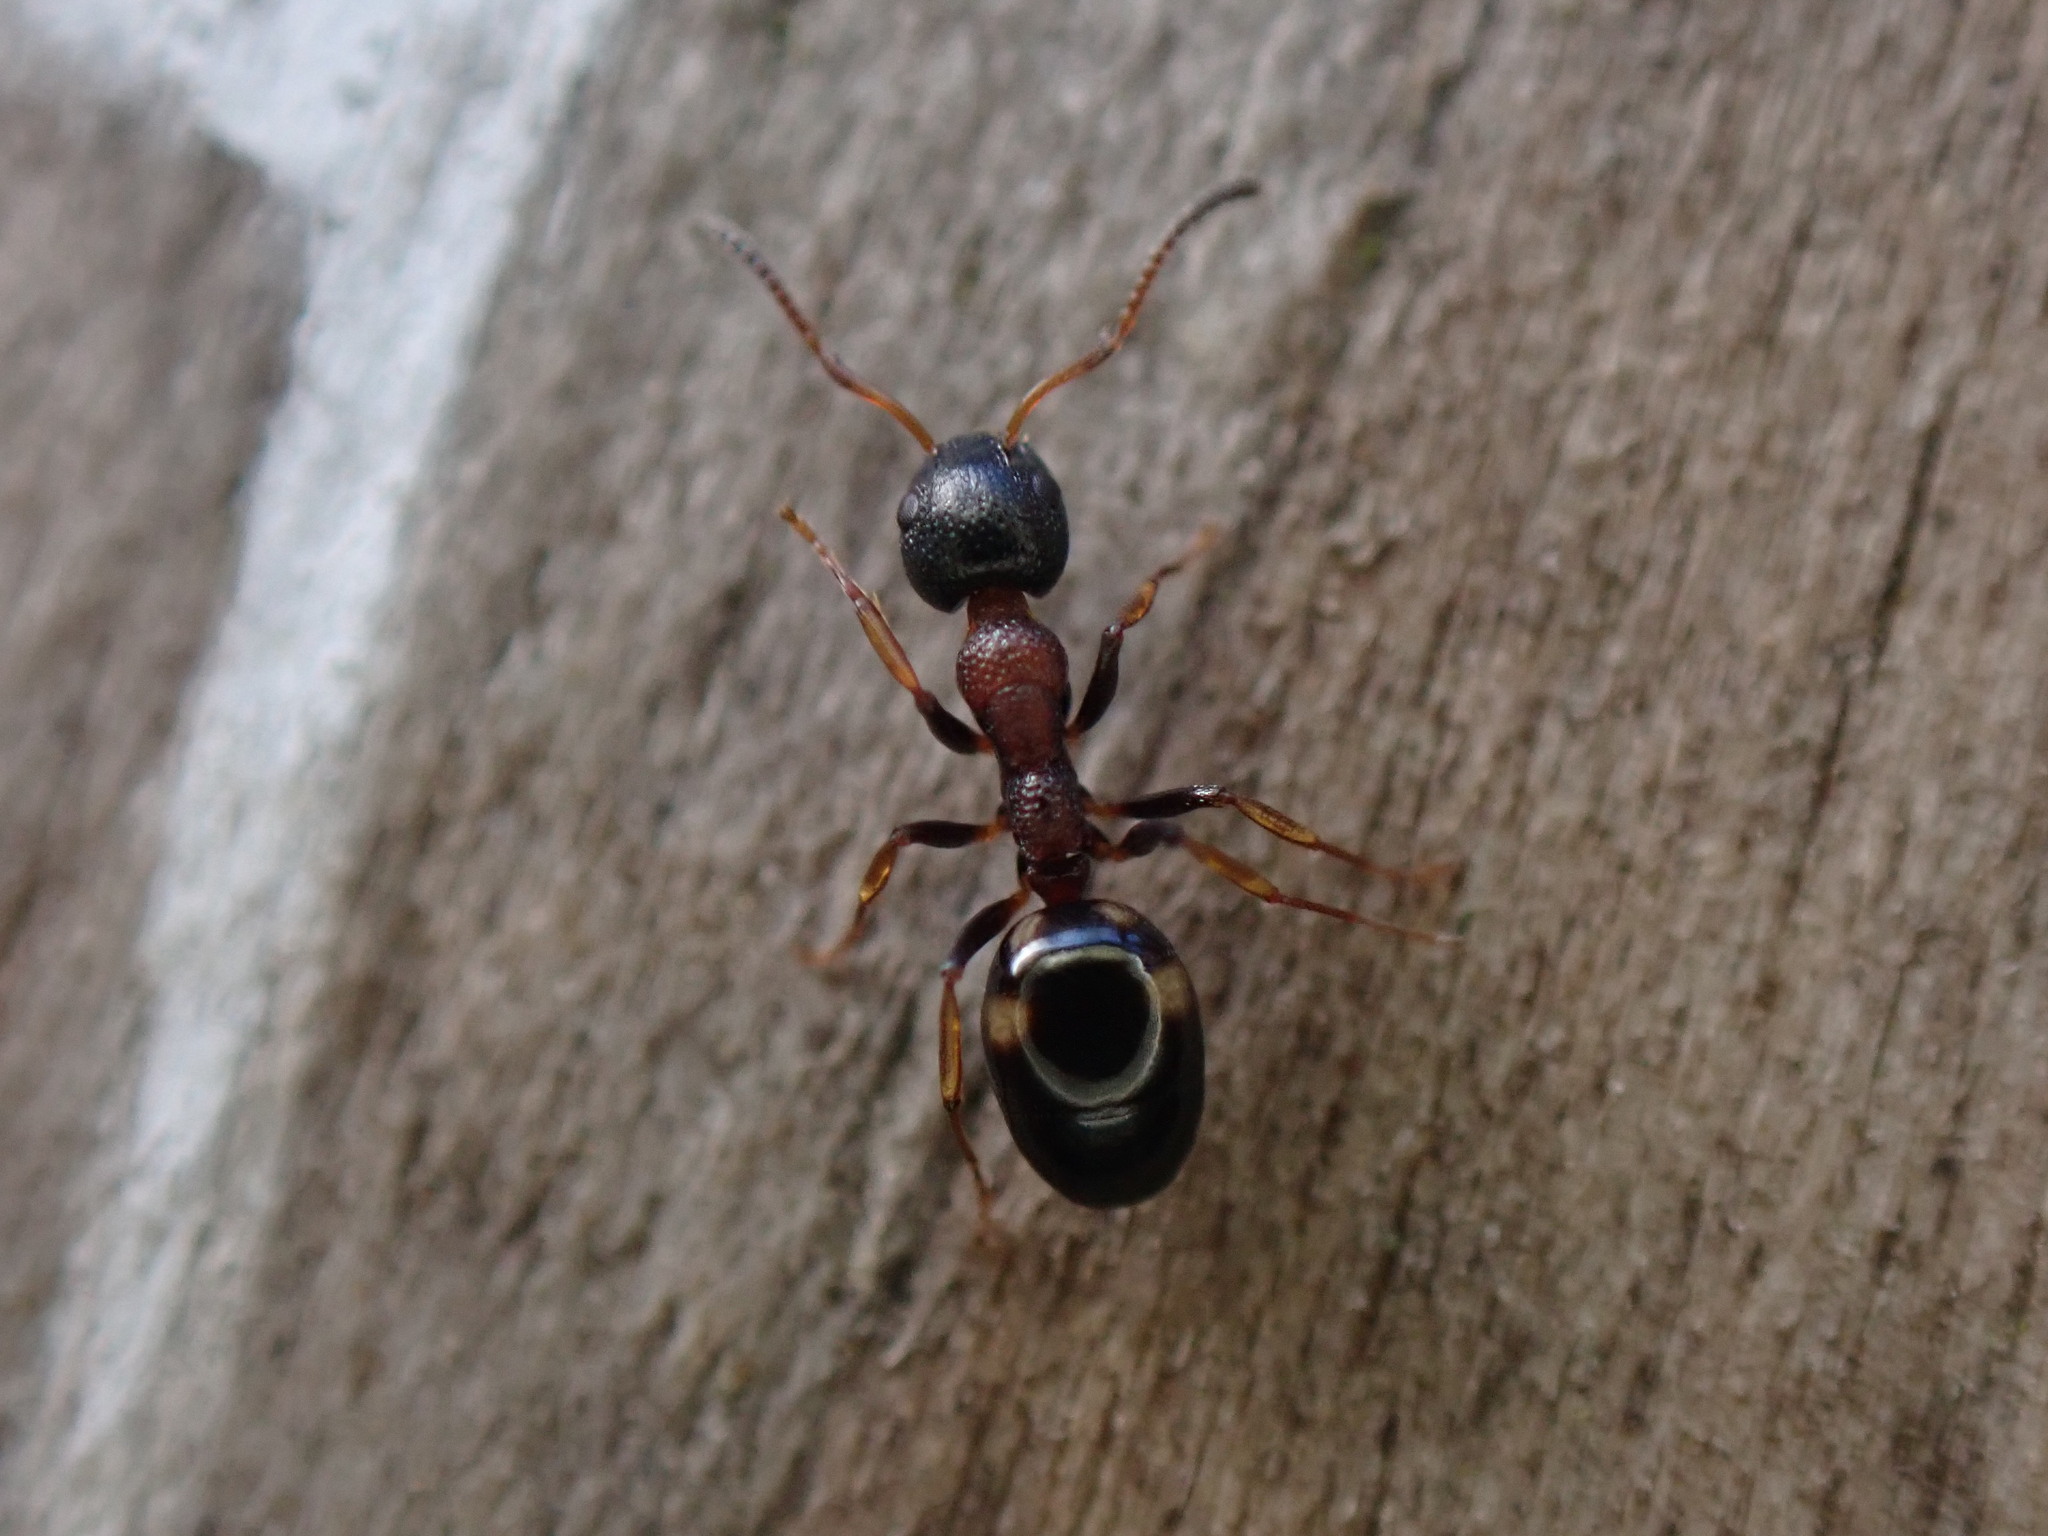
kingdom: Animalia
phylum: Arthropoda
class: Insecta
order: Hymenoptera
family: Formicidae
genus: Dolichoderus
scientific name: Dolichoderus quadripunctatus
